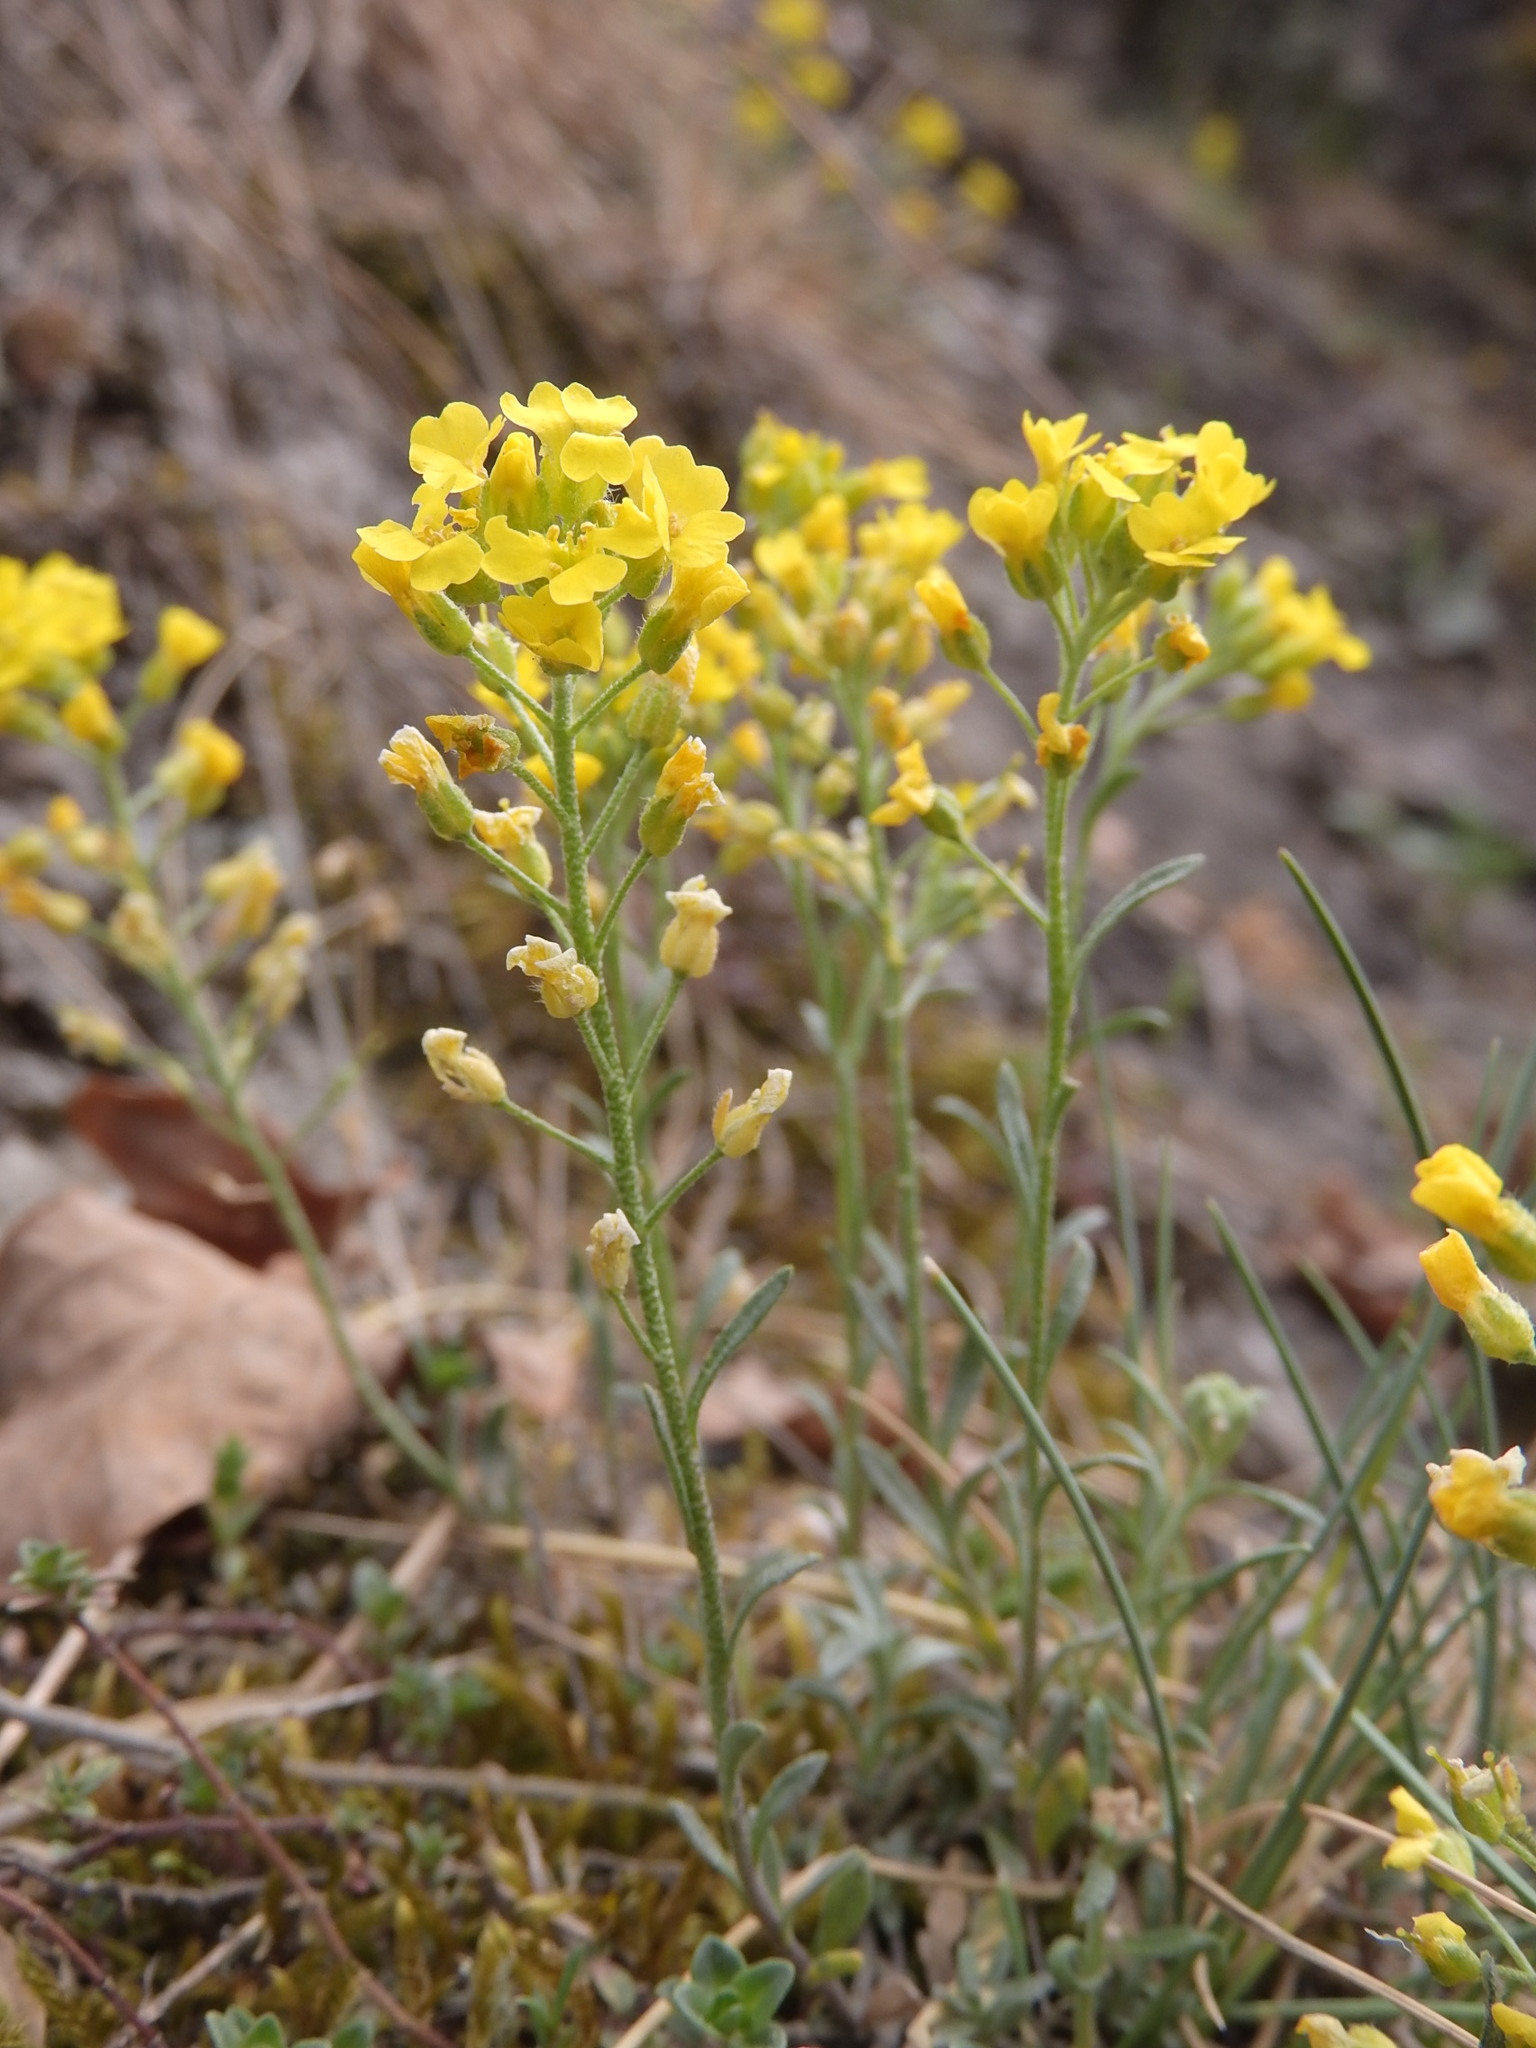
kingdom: Plantae
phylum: Tracheophyta
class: Magnoliopsida
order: Brassicales
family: Brassicaceae
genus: Alyssum
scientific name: Alyssum gmelinii
